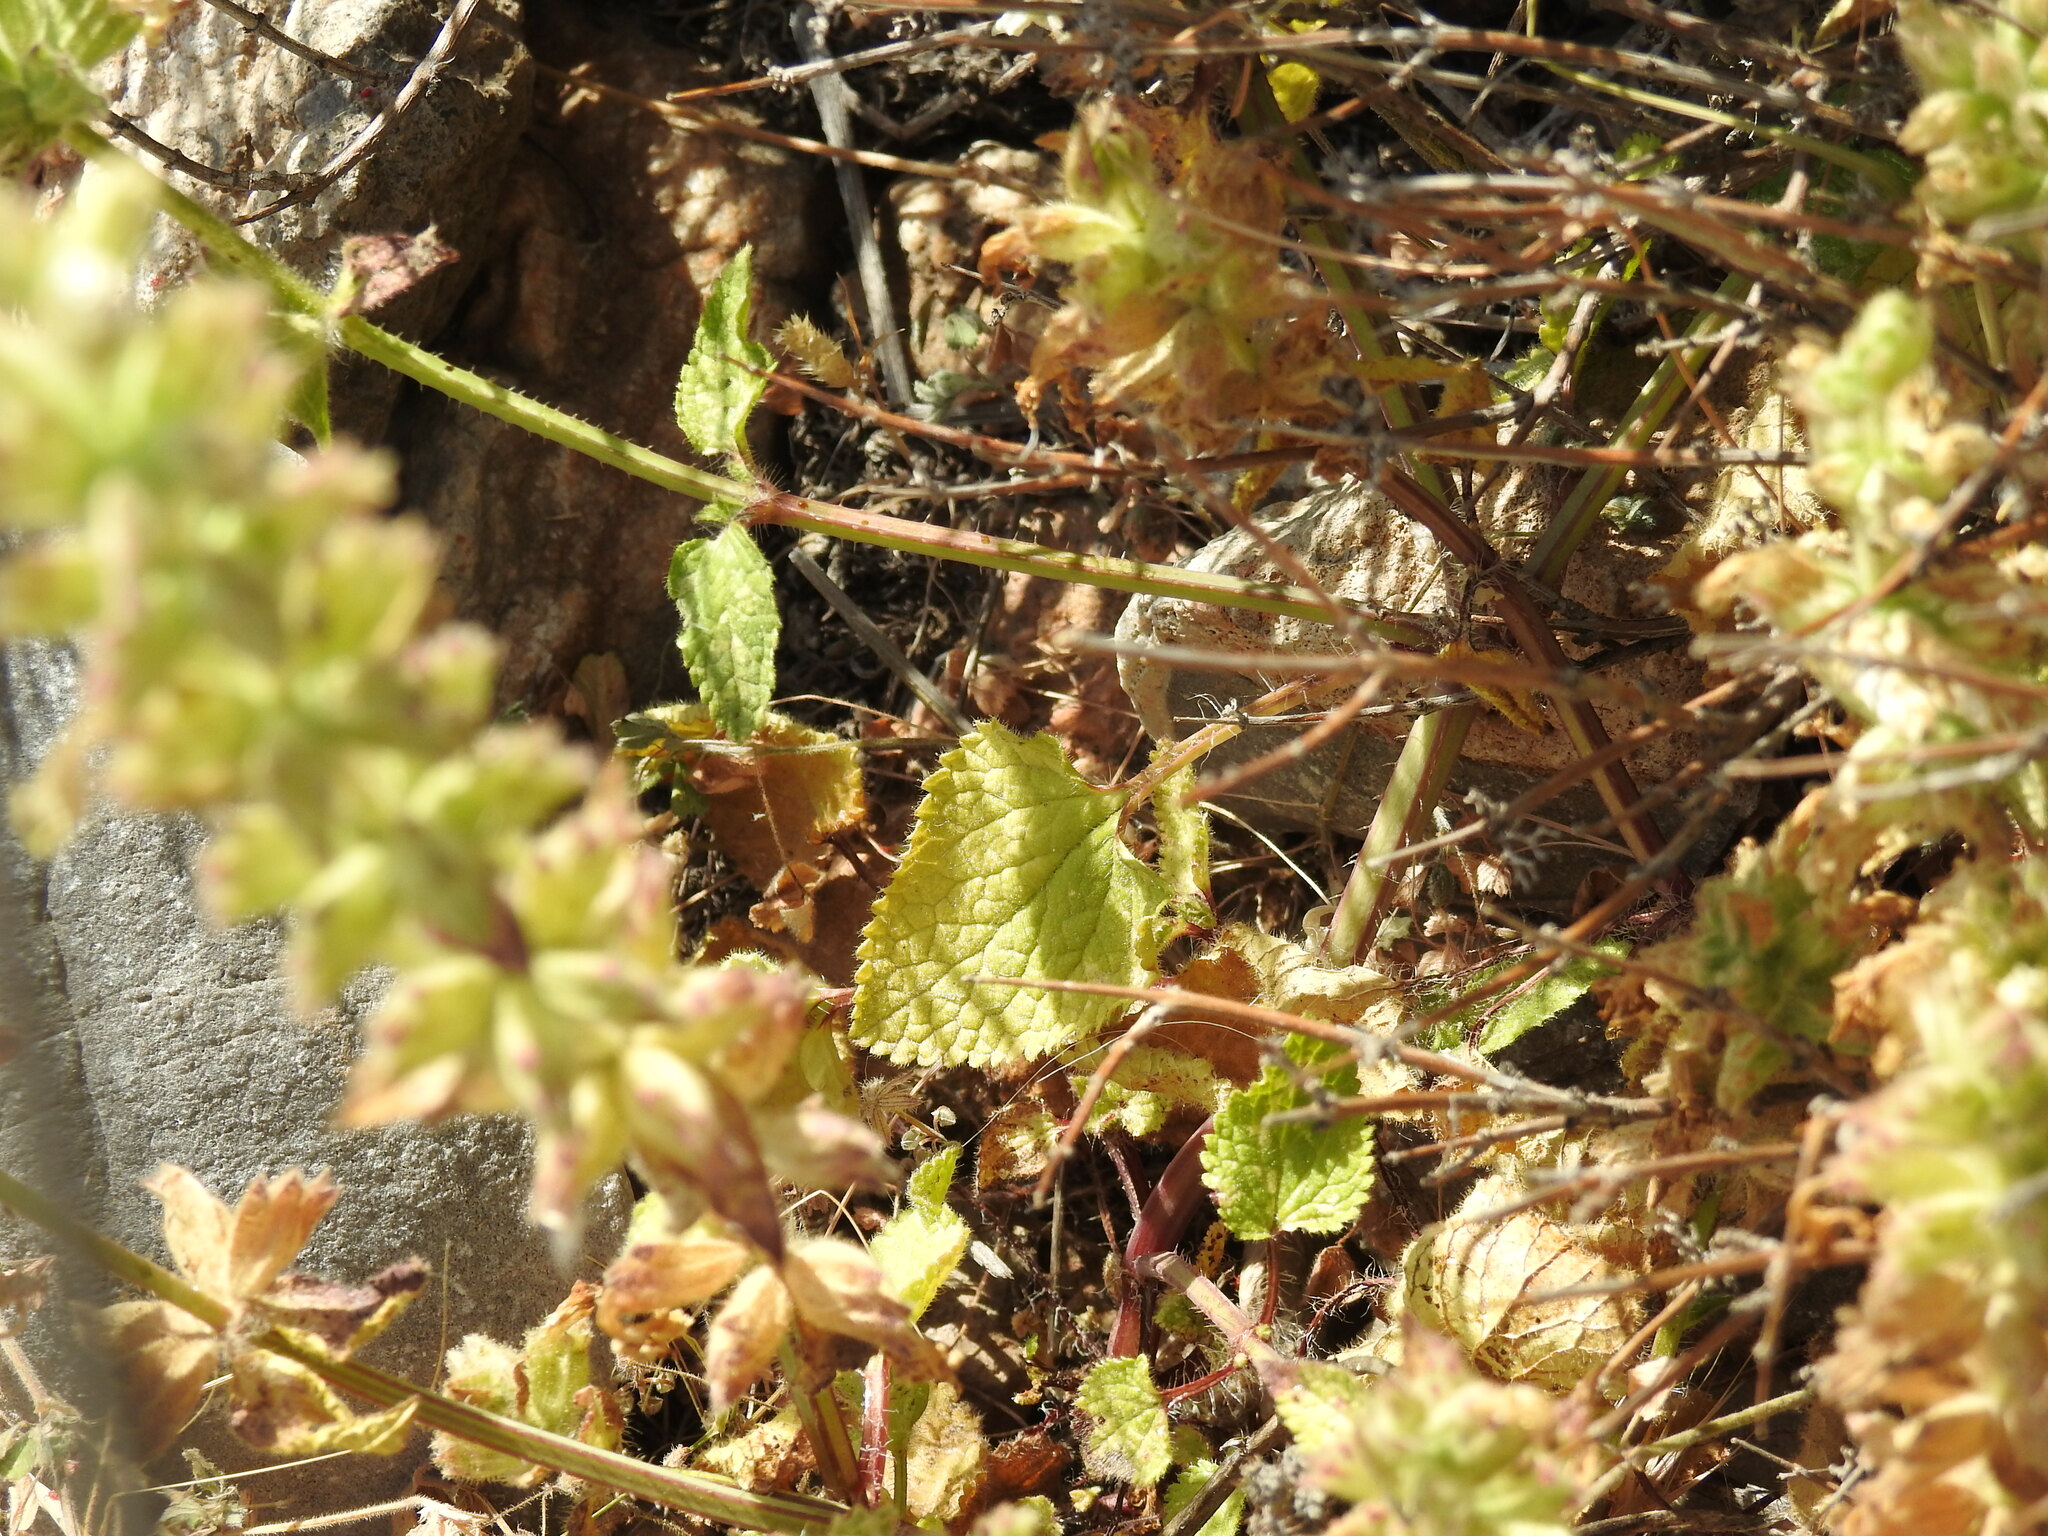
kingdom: Plantae
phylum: Tracheophyta
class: Magnoliopsida
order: Lamiales
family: Lamiaceae
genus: Stachys
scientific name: Stachys spinulosa
